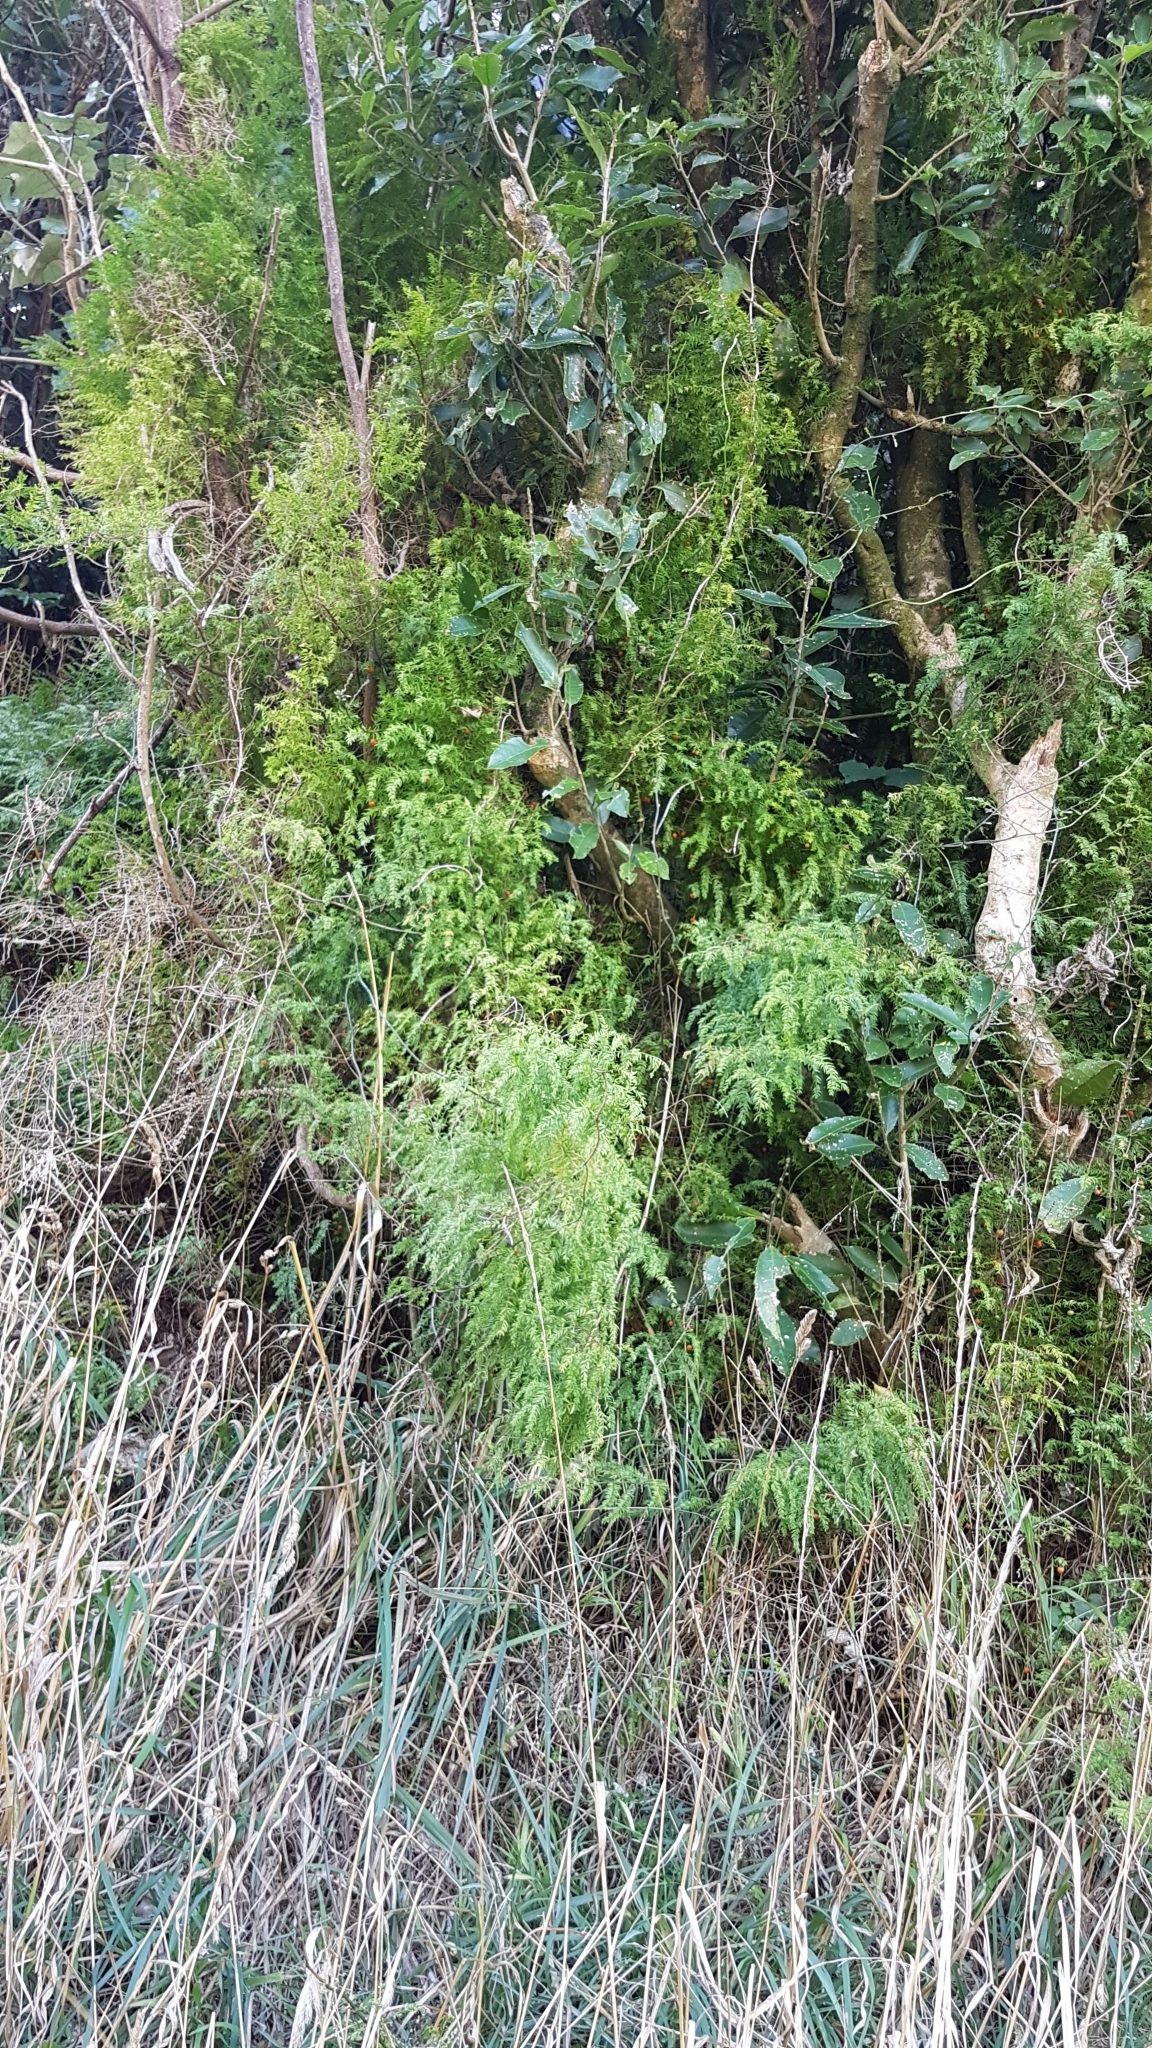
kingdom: Plantae
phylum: Tracheophyta
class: Liliopsida
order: Asparagales
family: Asparagaceae
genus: Asparagus
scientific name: Asparagus scandens
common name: Asparagus-fern
